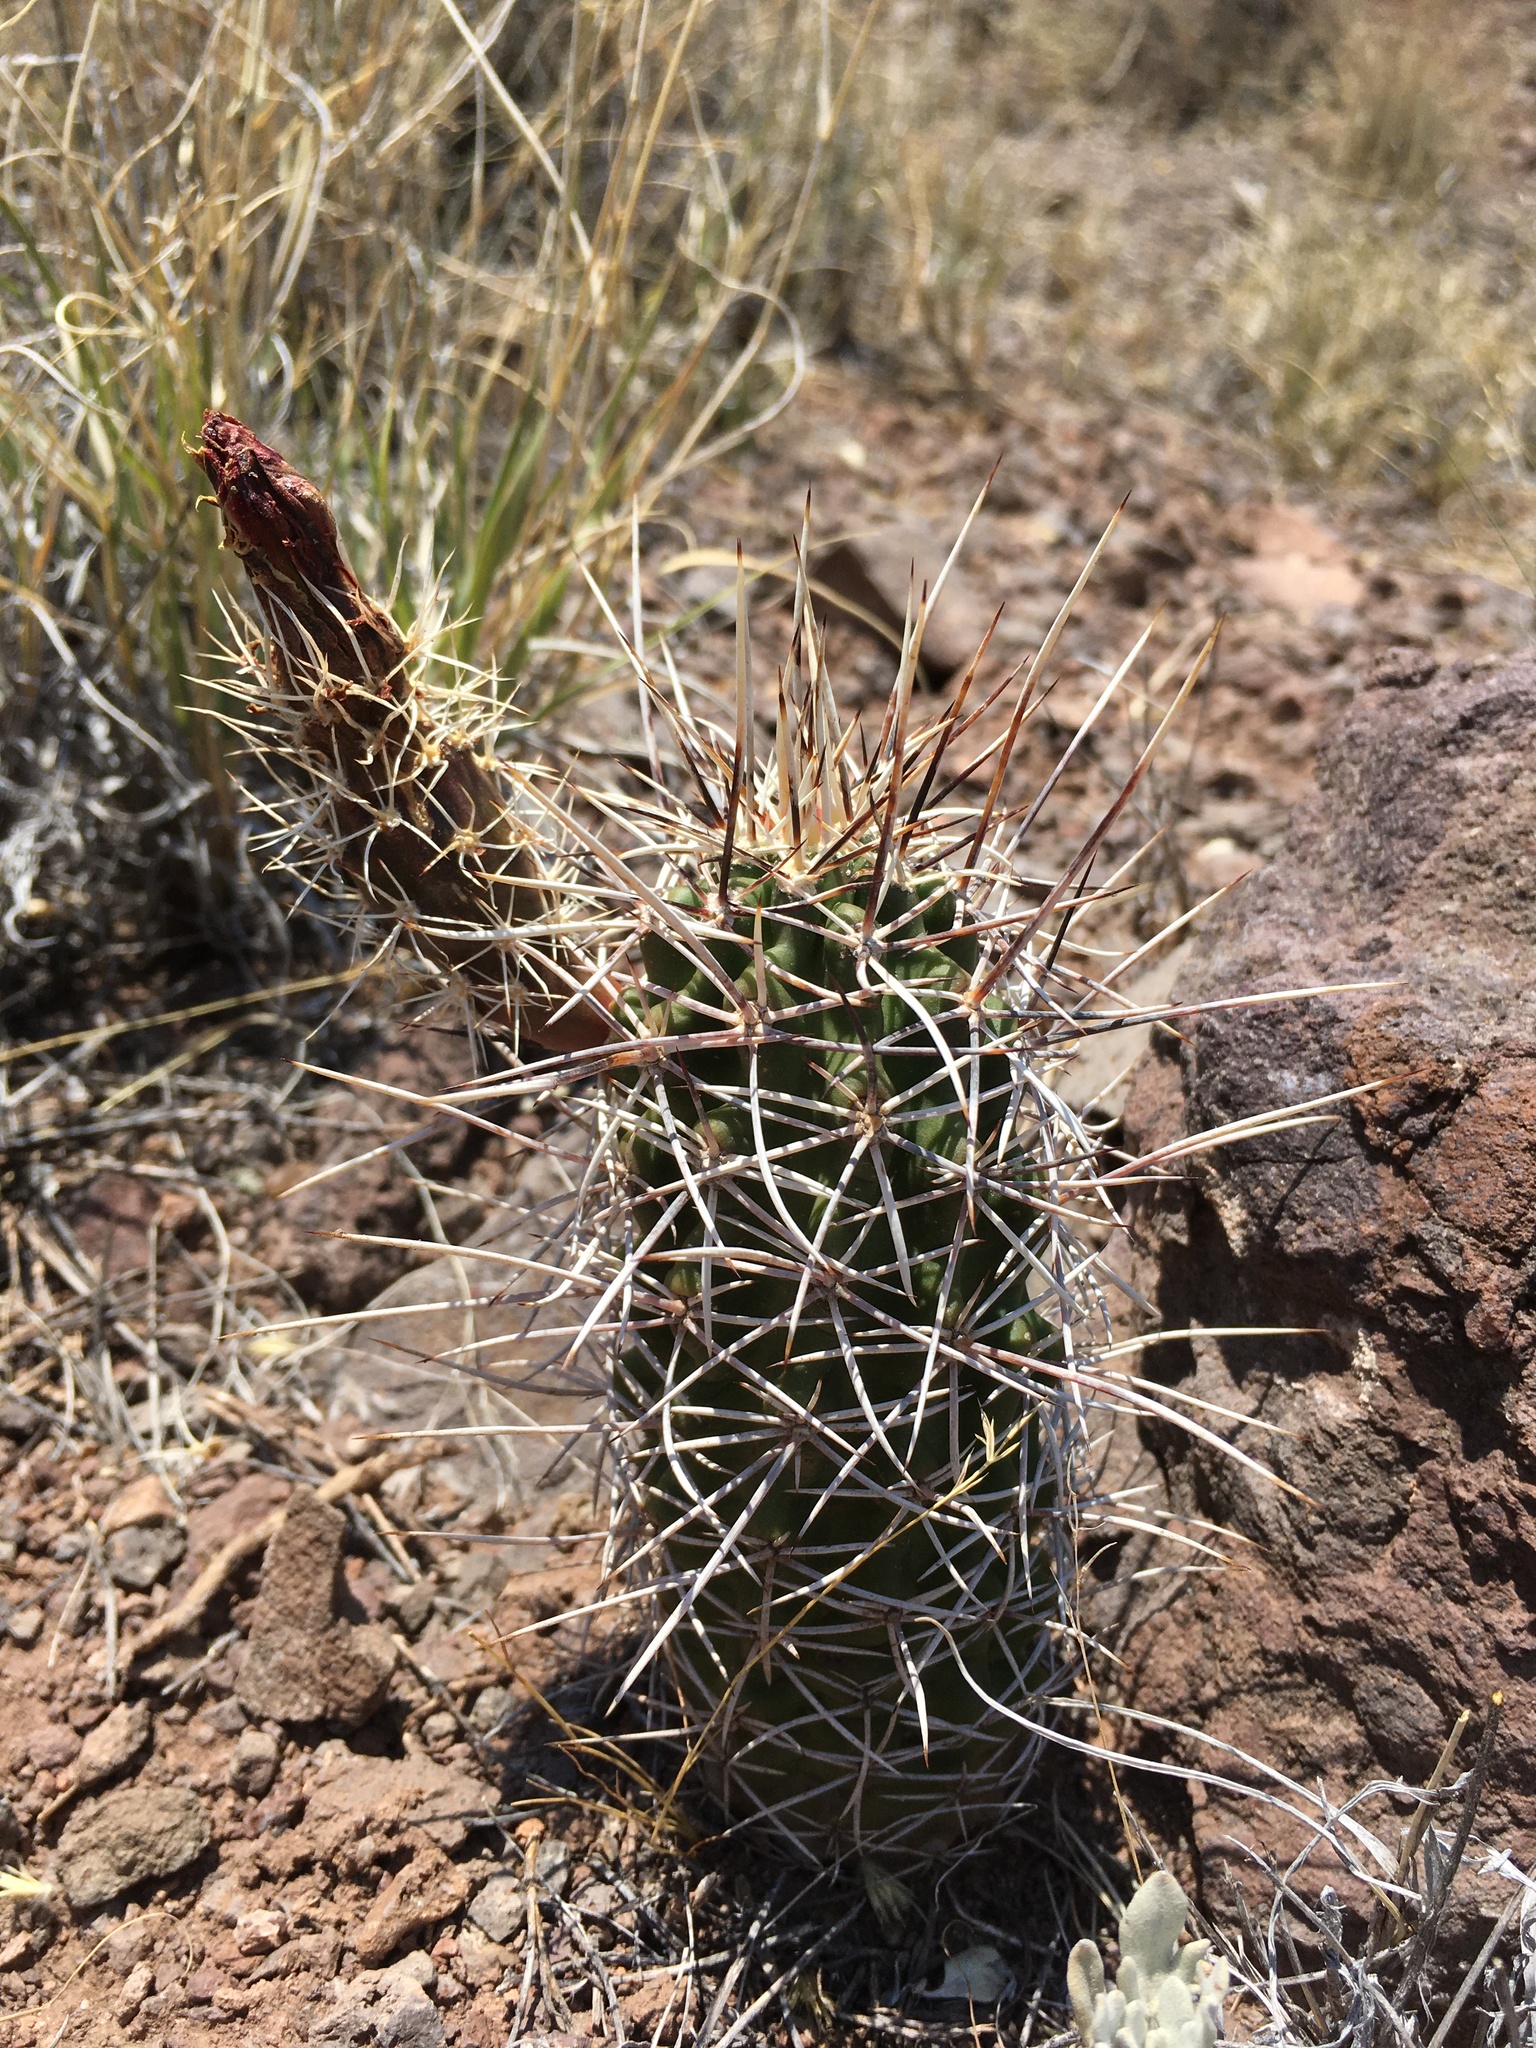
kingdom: Plantae
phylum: Tracheophyta
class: Magnoliopsida
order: Caryophyllales
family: Cactaceae
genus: Echinocereus
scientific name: Echinocereus fendleri
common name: Fendler's hedgehog cactus
